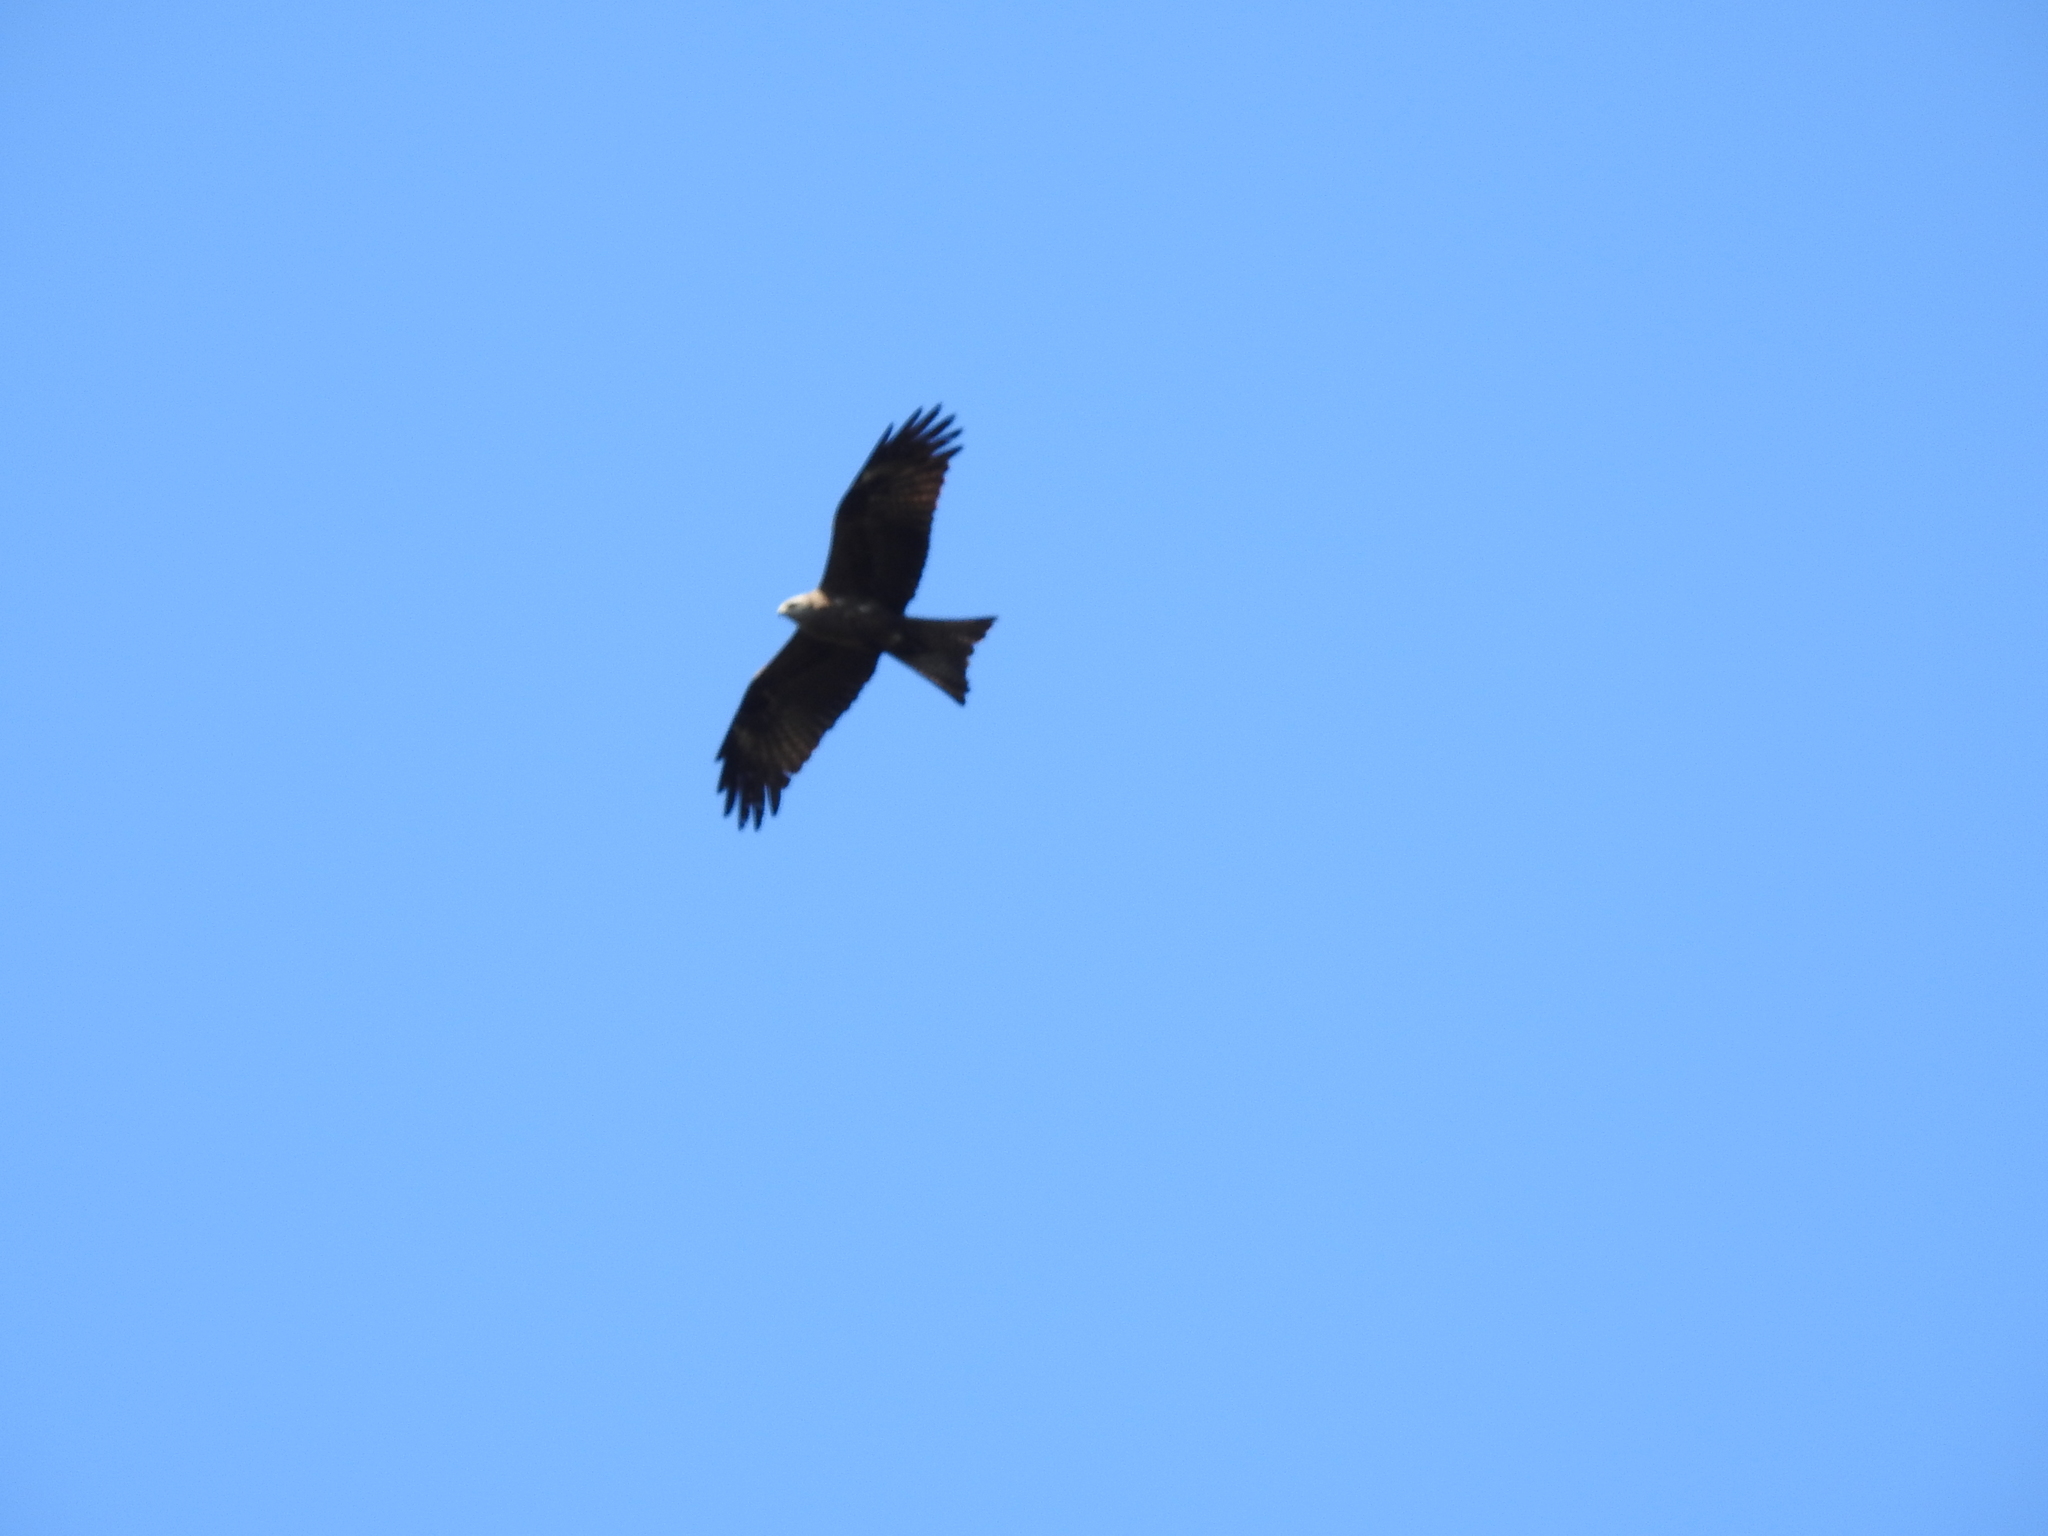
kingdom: Animalia
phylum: Chordata
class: Aves
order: Accipitriformes
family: Accipitridae
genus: Milvus
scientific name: Milvus migrans
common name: Black kite
